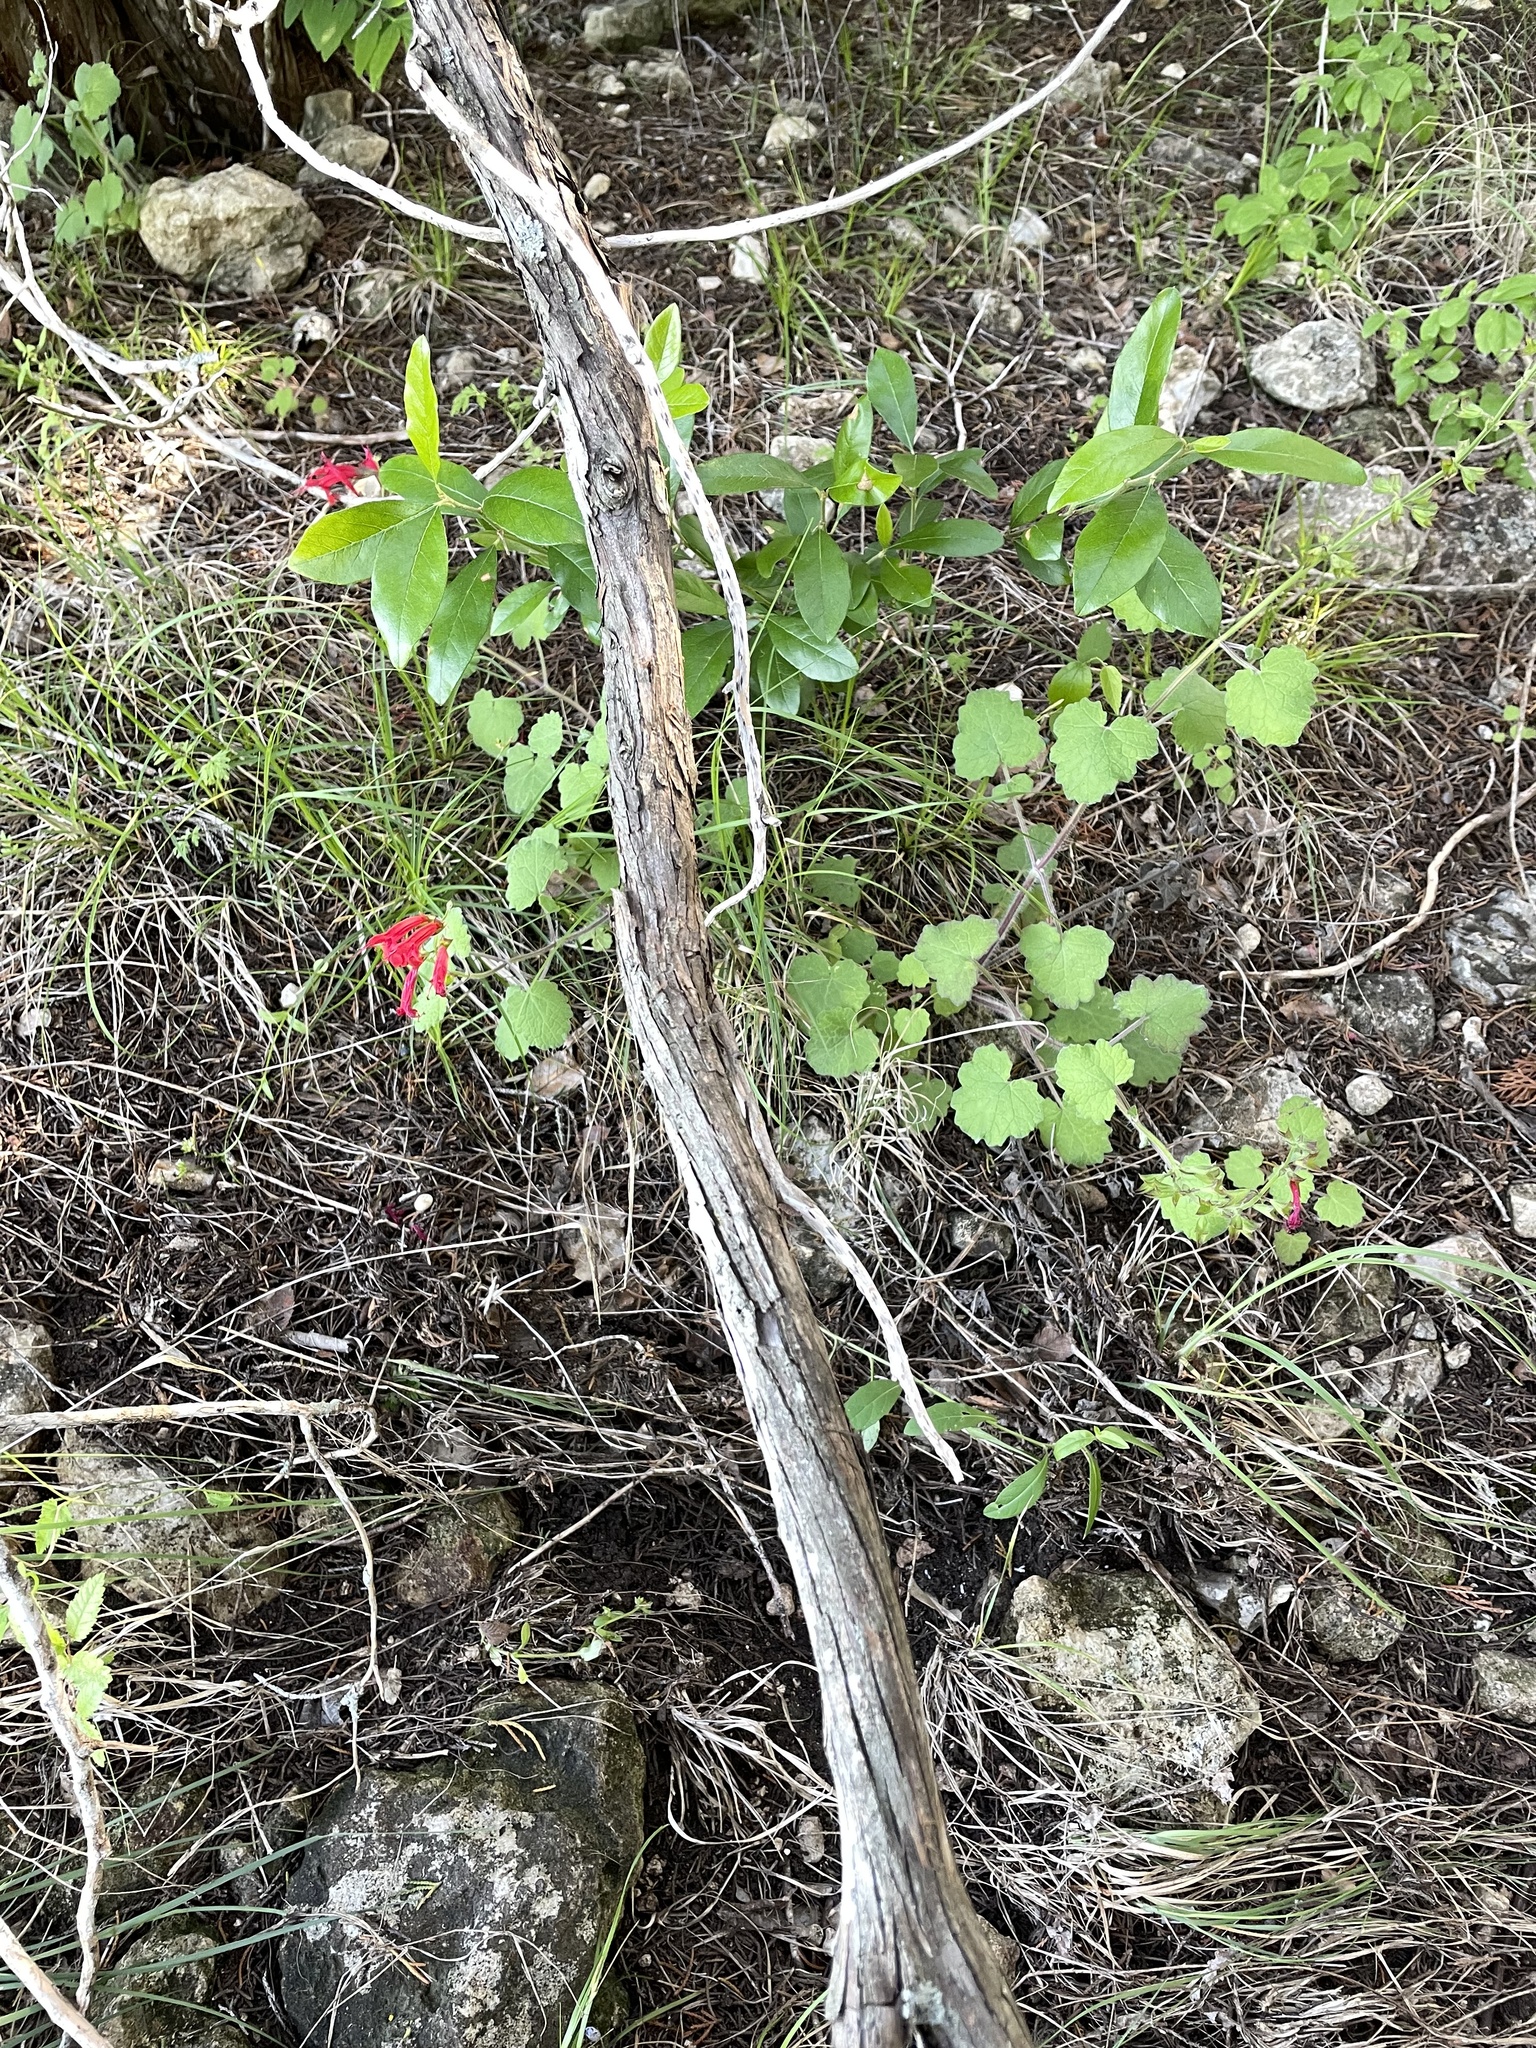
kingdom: Plantae
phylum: Tracheophyta
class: Magnoliopsida
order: Lamiales
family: Lamiaceae
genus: Salvia
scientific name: Salvia roemeriana
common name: Cedar sage
